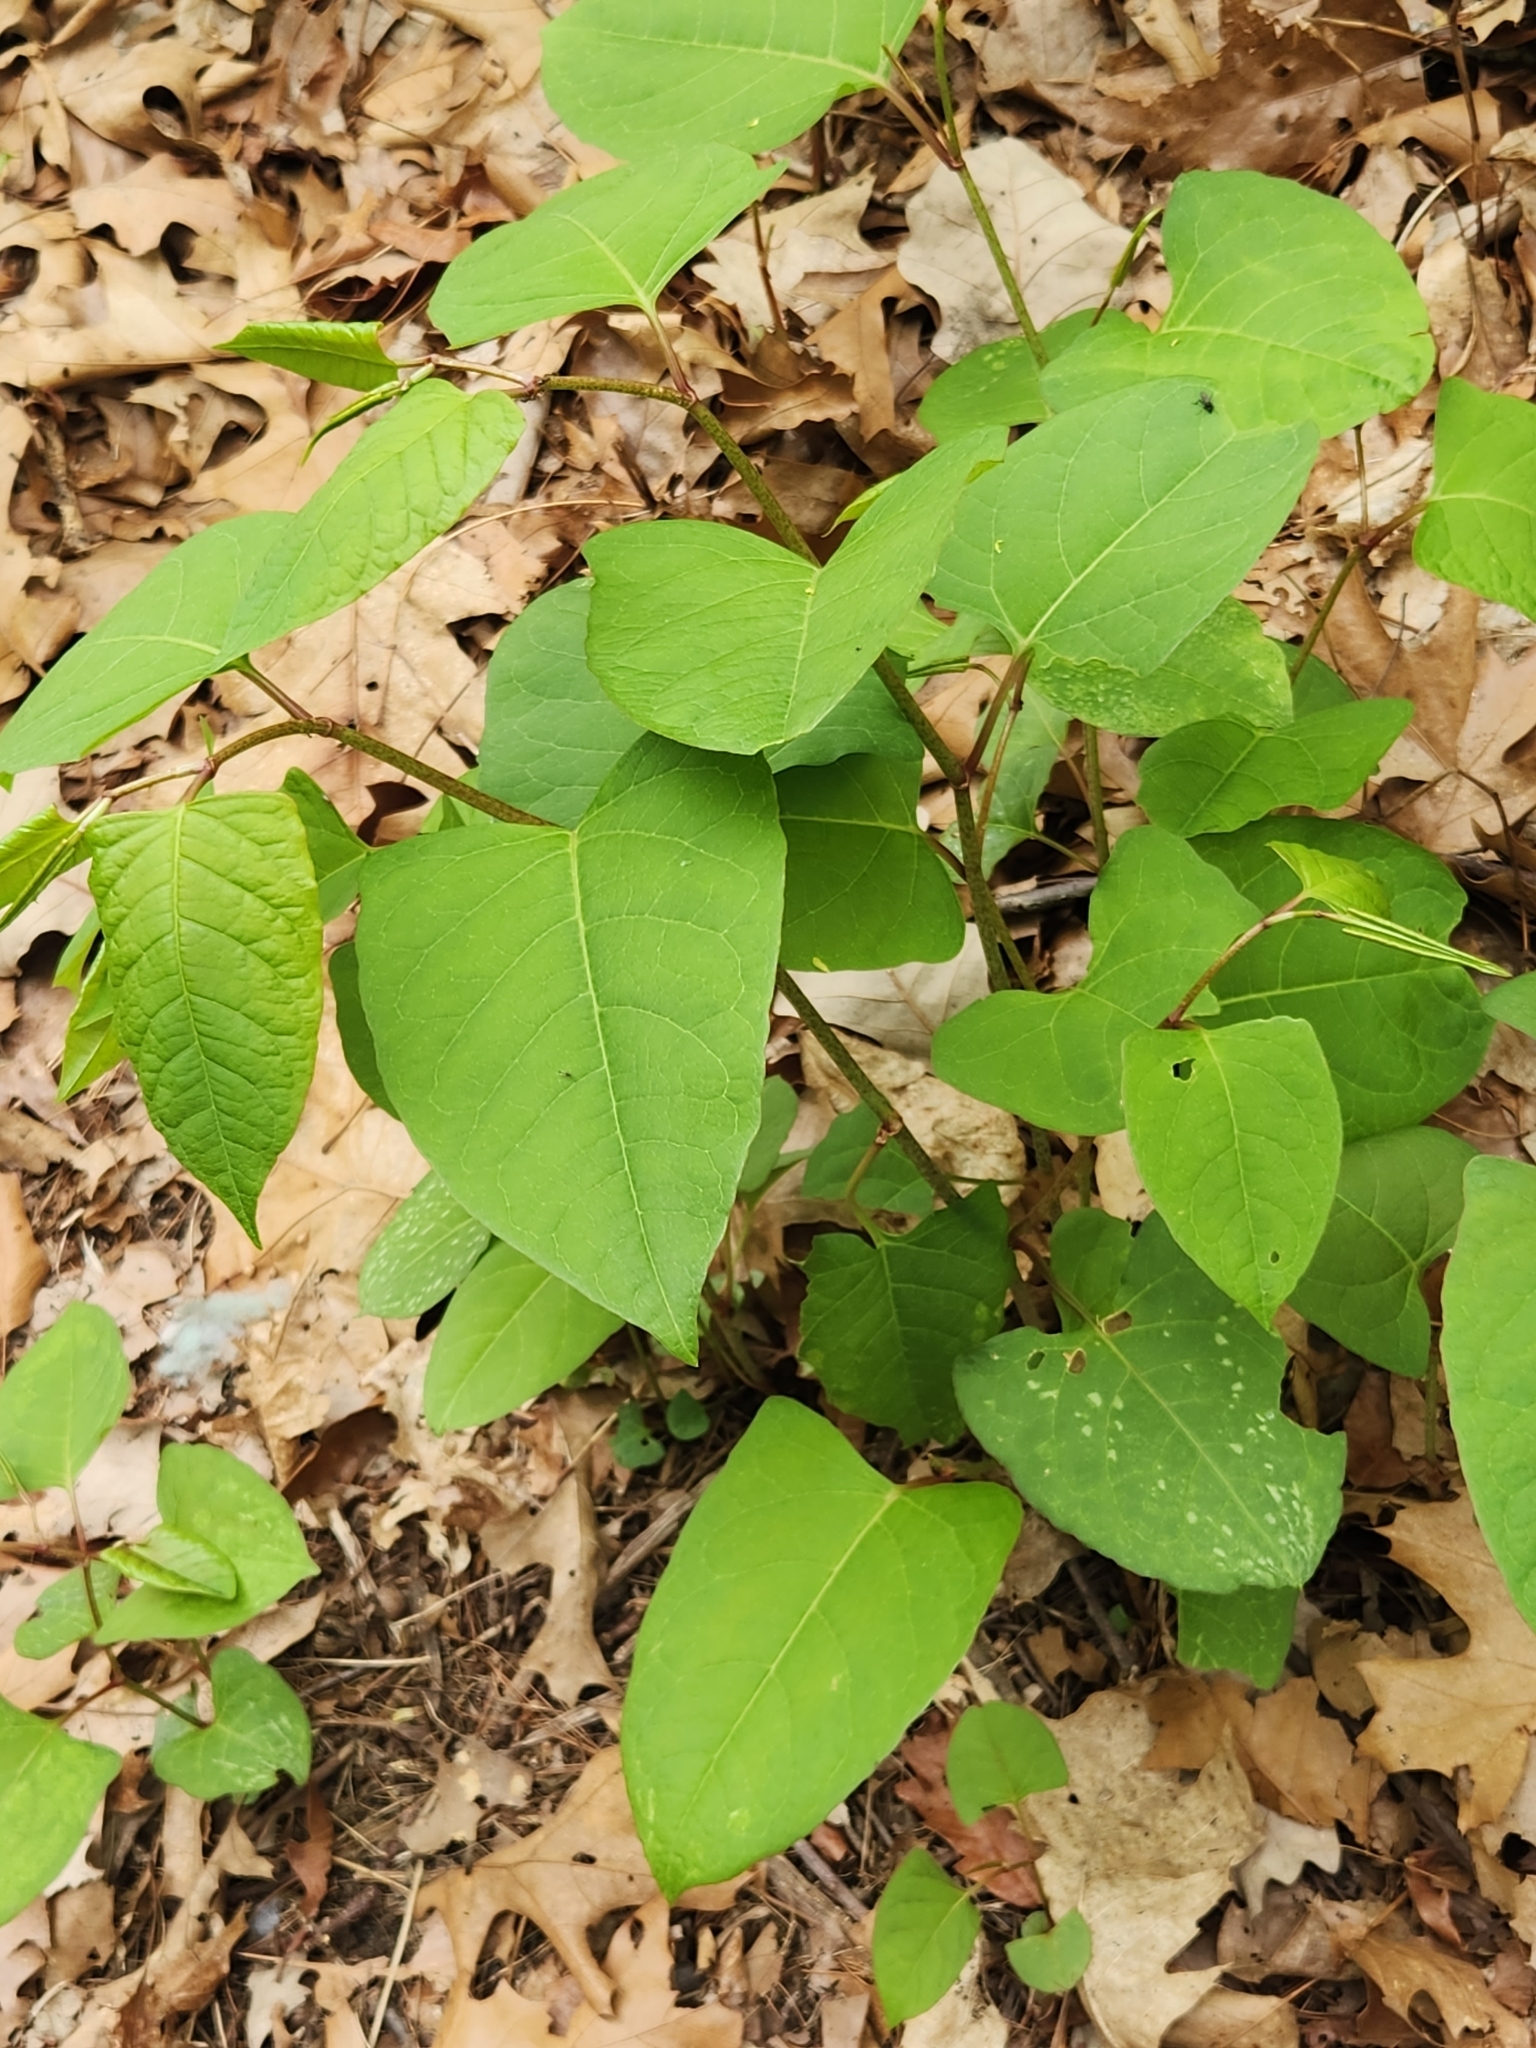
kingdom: Plantae
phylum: Tracheophyta
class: Magnoliopsida
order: Caryophyllales
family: Polygonaceae
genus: Reynoutria
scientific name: Reynoutria japonica
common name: Japanese knotweed
